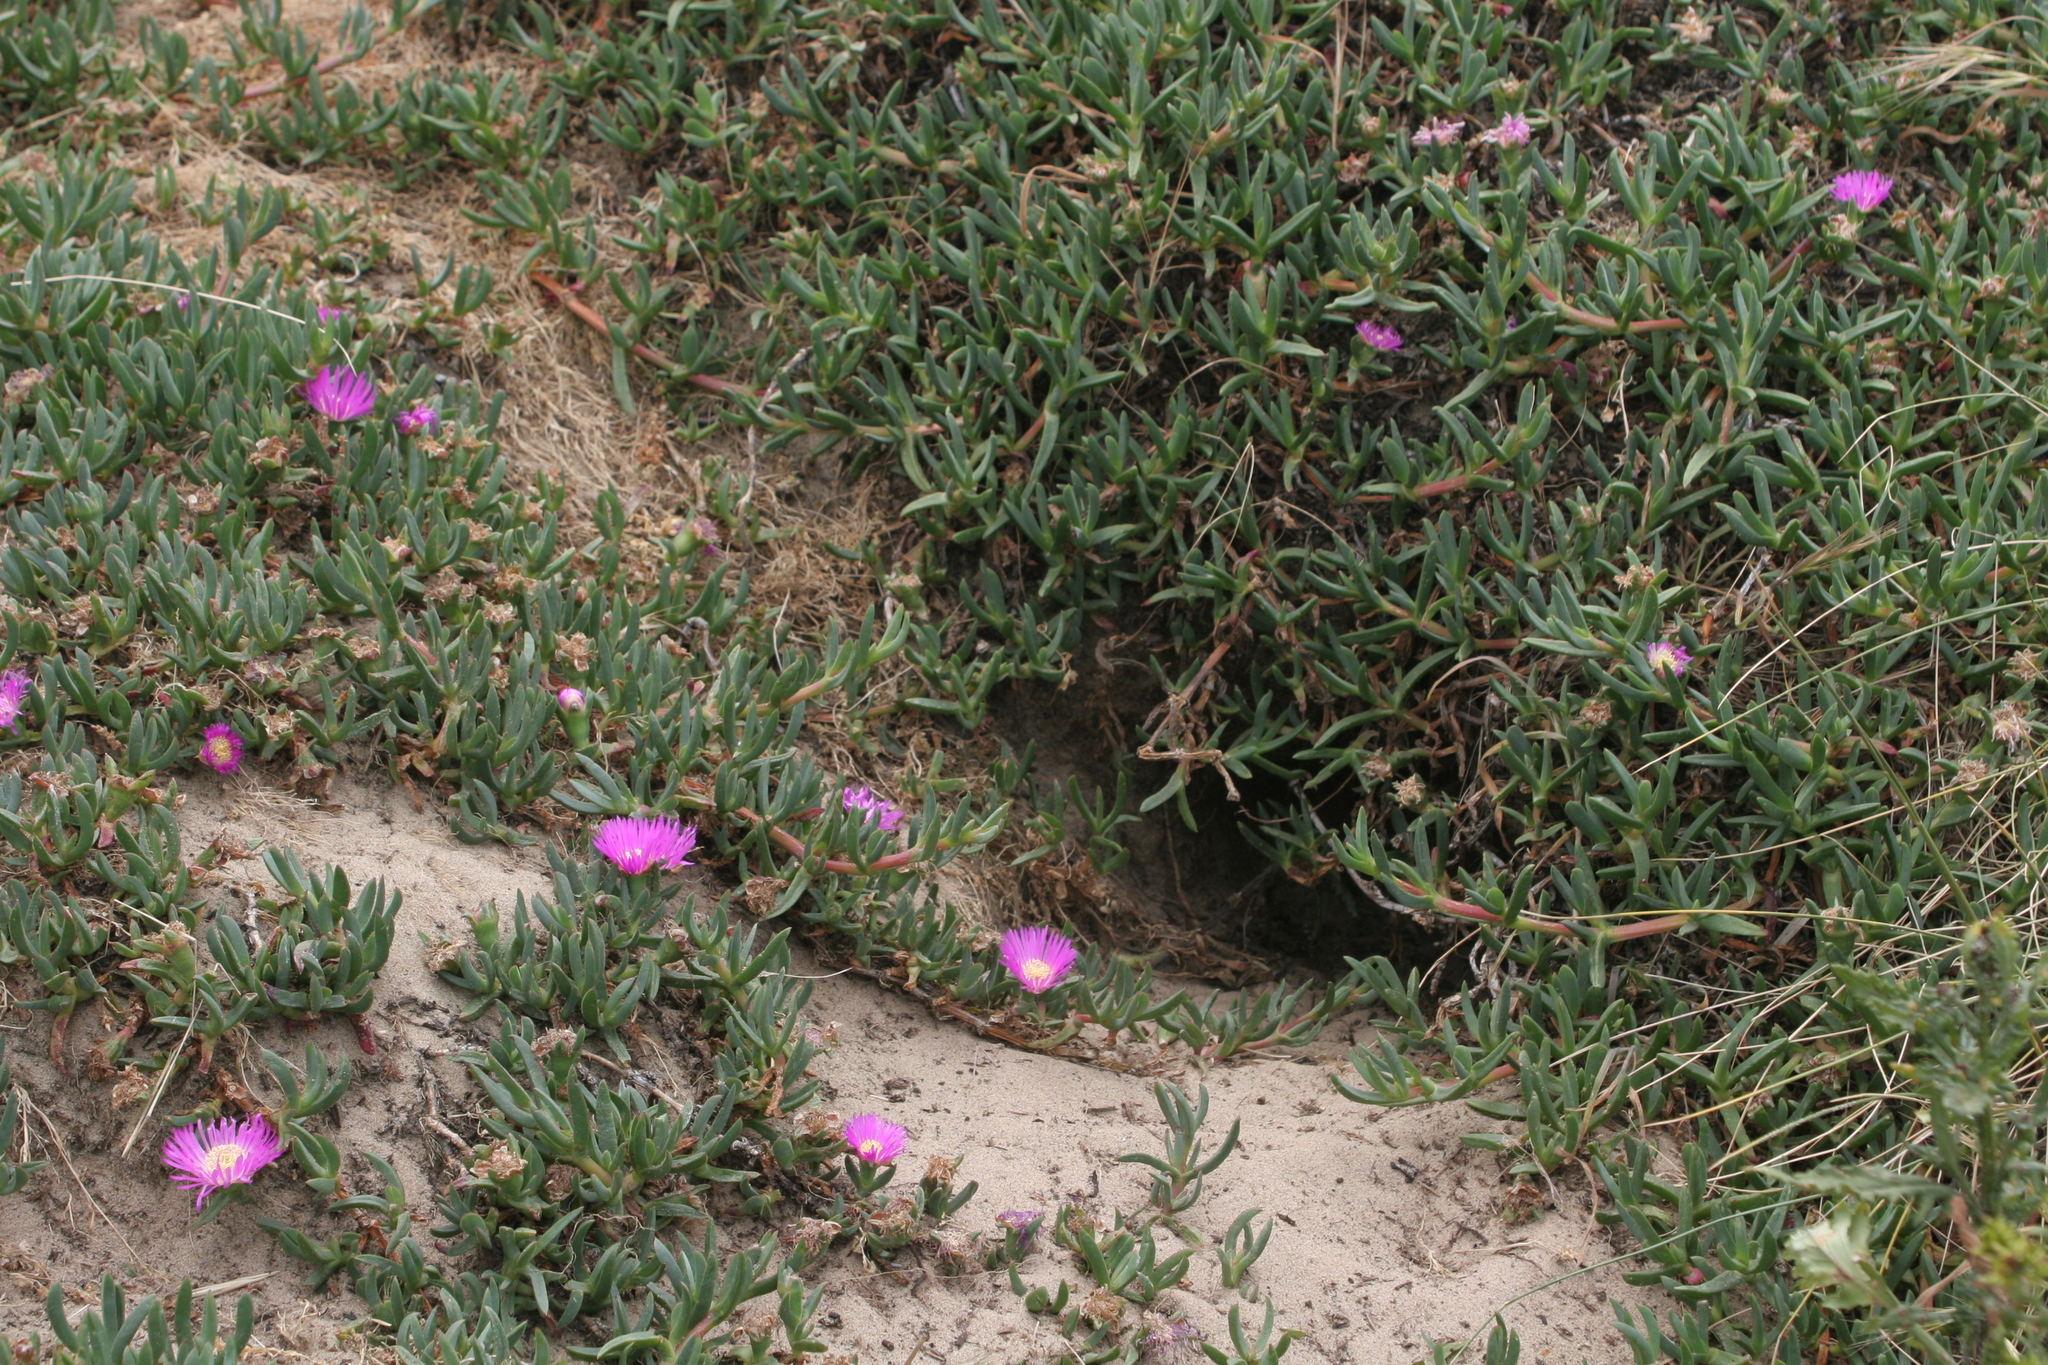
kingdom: Plantae
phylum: Tracheophyta
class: Magnoliopsida
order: Caryophyllales
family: Aizoaceae
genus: Carpobrotus
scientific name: Carpobrotus rossii
